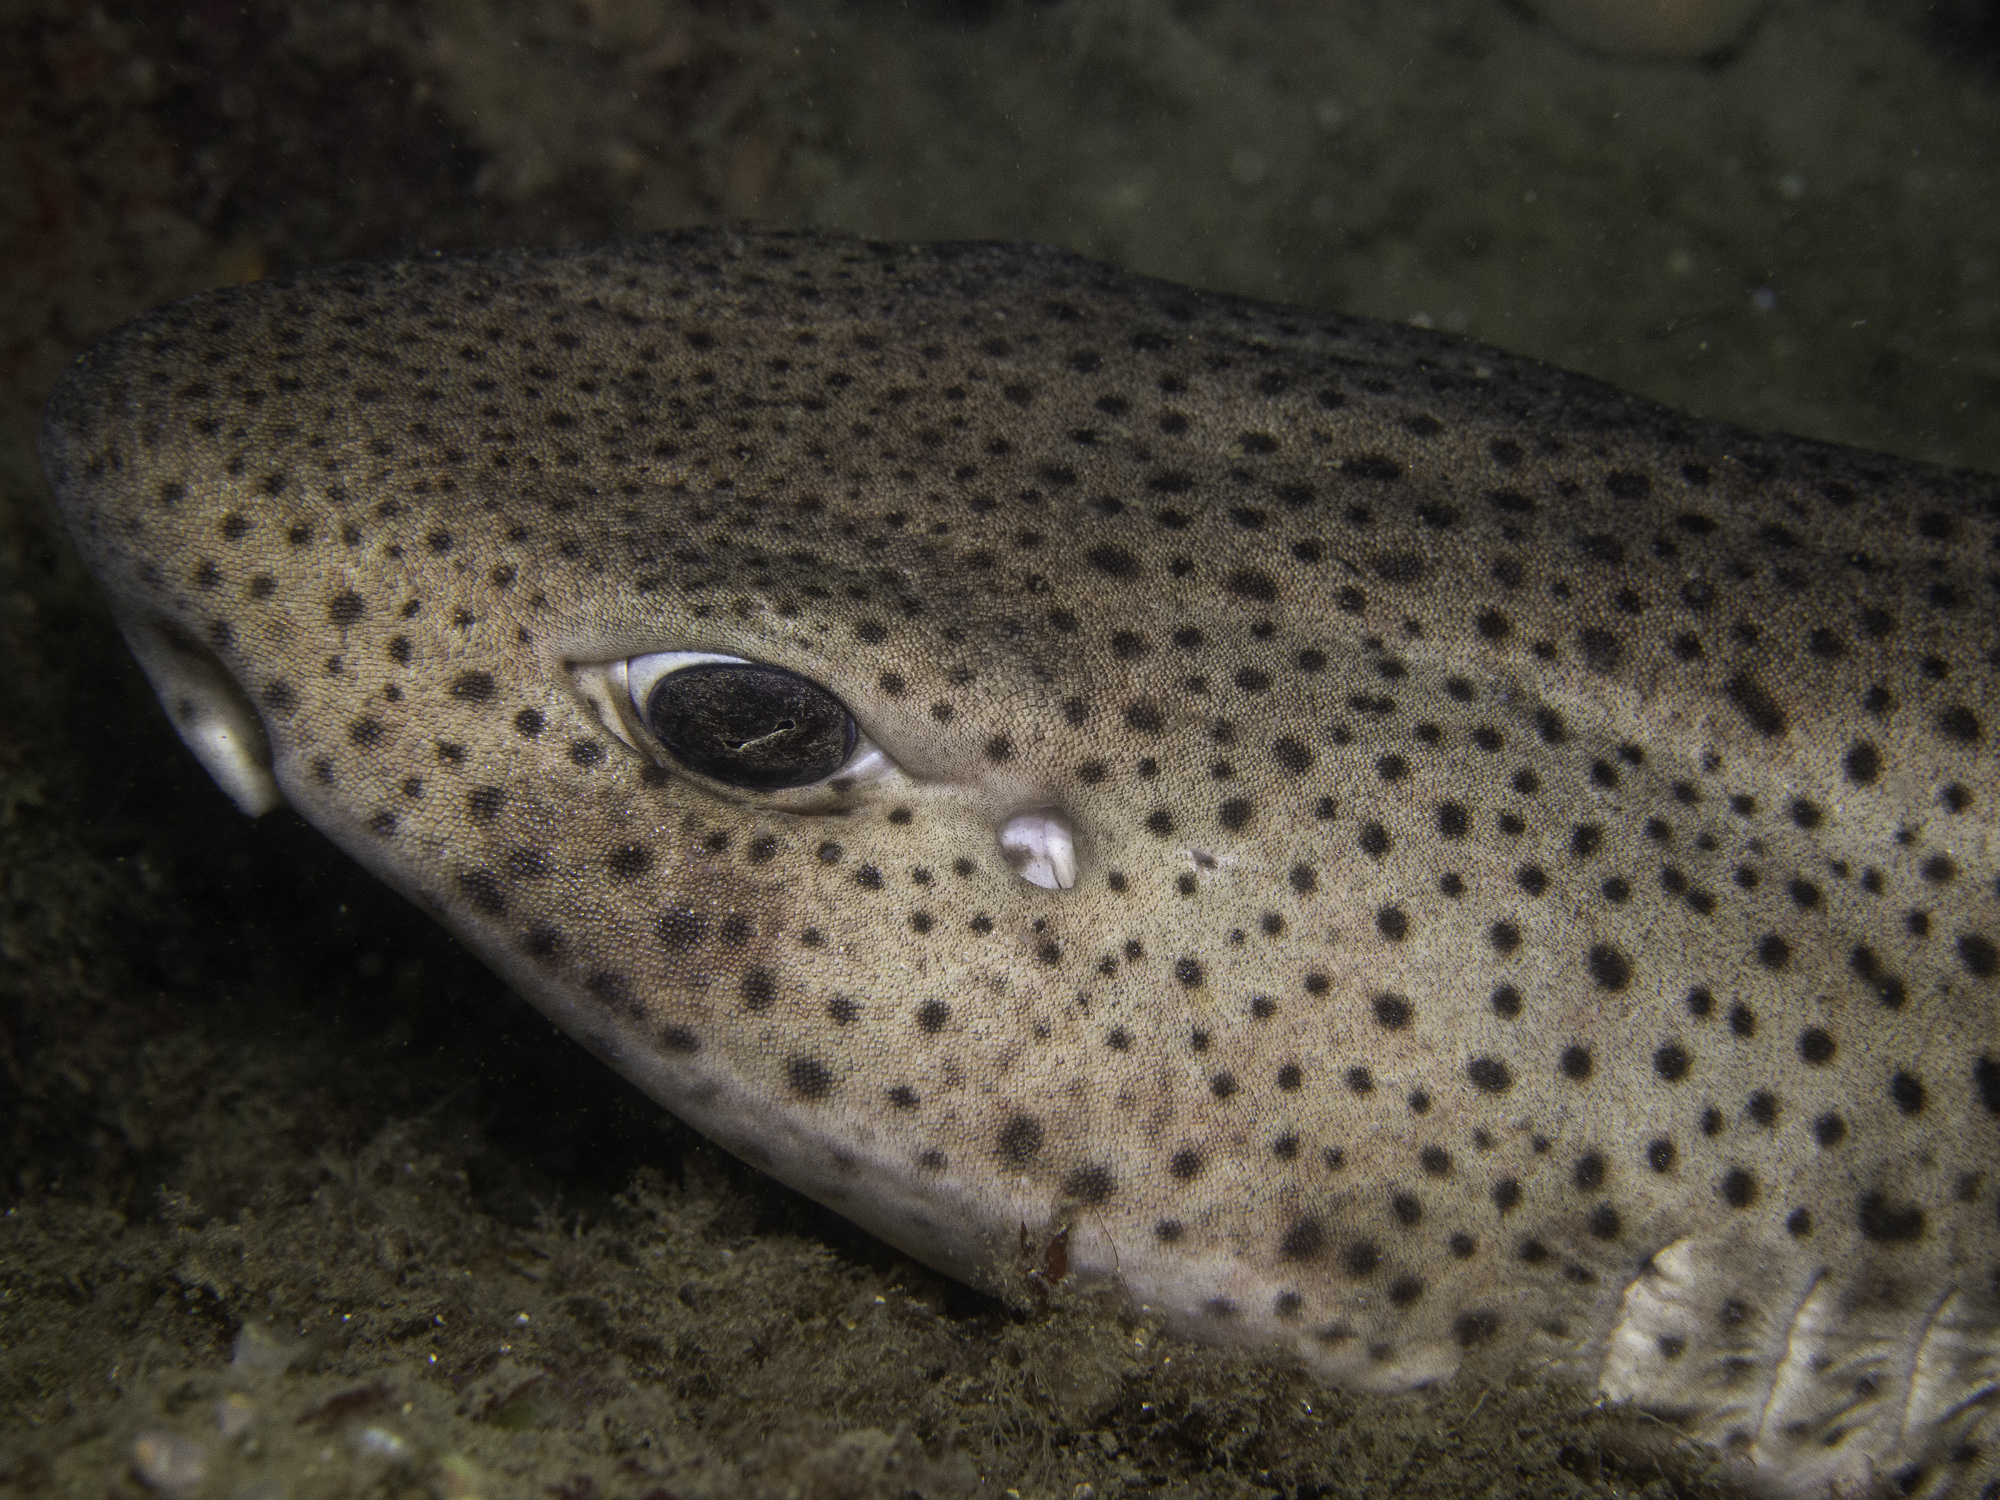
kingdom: Animalia
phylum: Chordata
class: Elasmobranchii
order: Carcharhiniformes
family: Scyliorhinidae
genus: Scyliorhinus
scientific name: Scyliorhinus stellaris
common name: Nursehound
